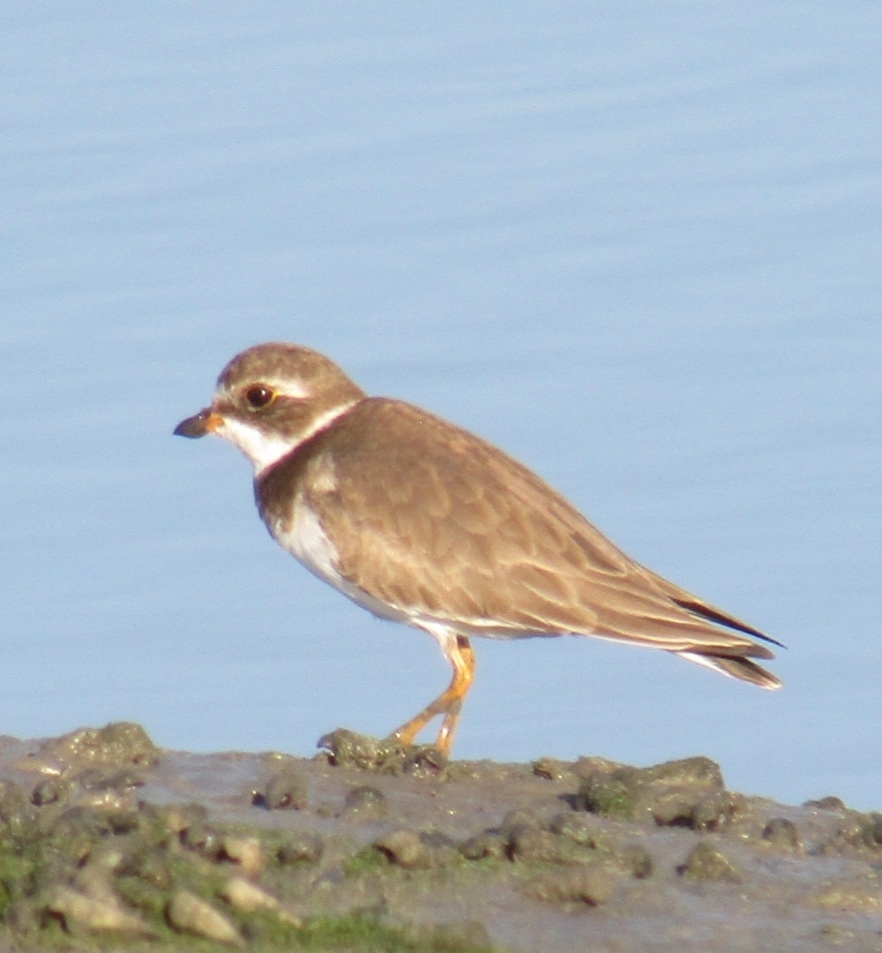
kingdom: Animalia
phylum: Chordata
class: Aves
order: Charadriiformes
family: Charadriidae
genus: Charadrius
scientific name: Charadrius semipalmatus
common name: Semipalmated plover
